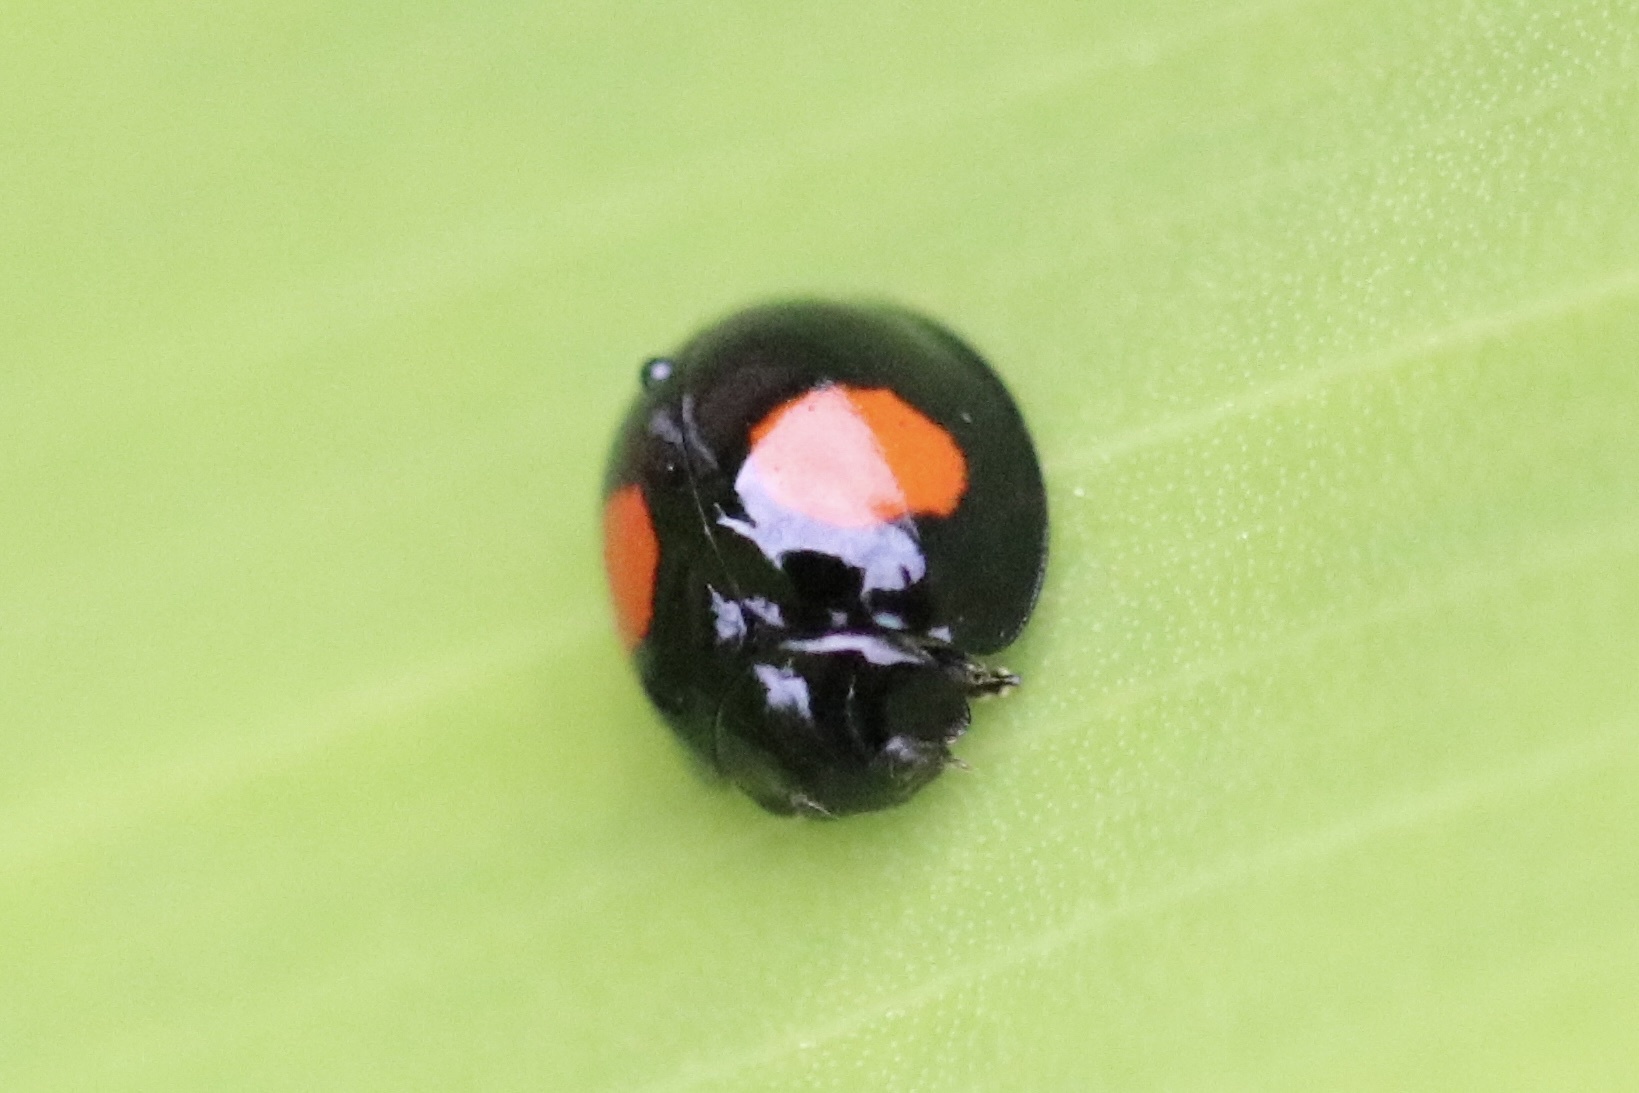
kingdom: Animalia
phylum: Arthropoda
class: Insecta
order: Coleoptera
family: Coccinellidae
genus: Chilocorus
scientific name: Chilocorus cacti
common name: Cactus lady beetle
